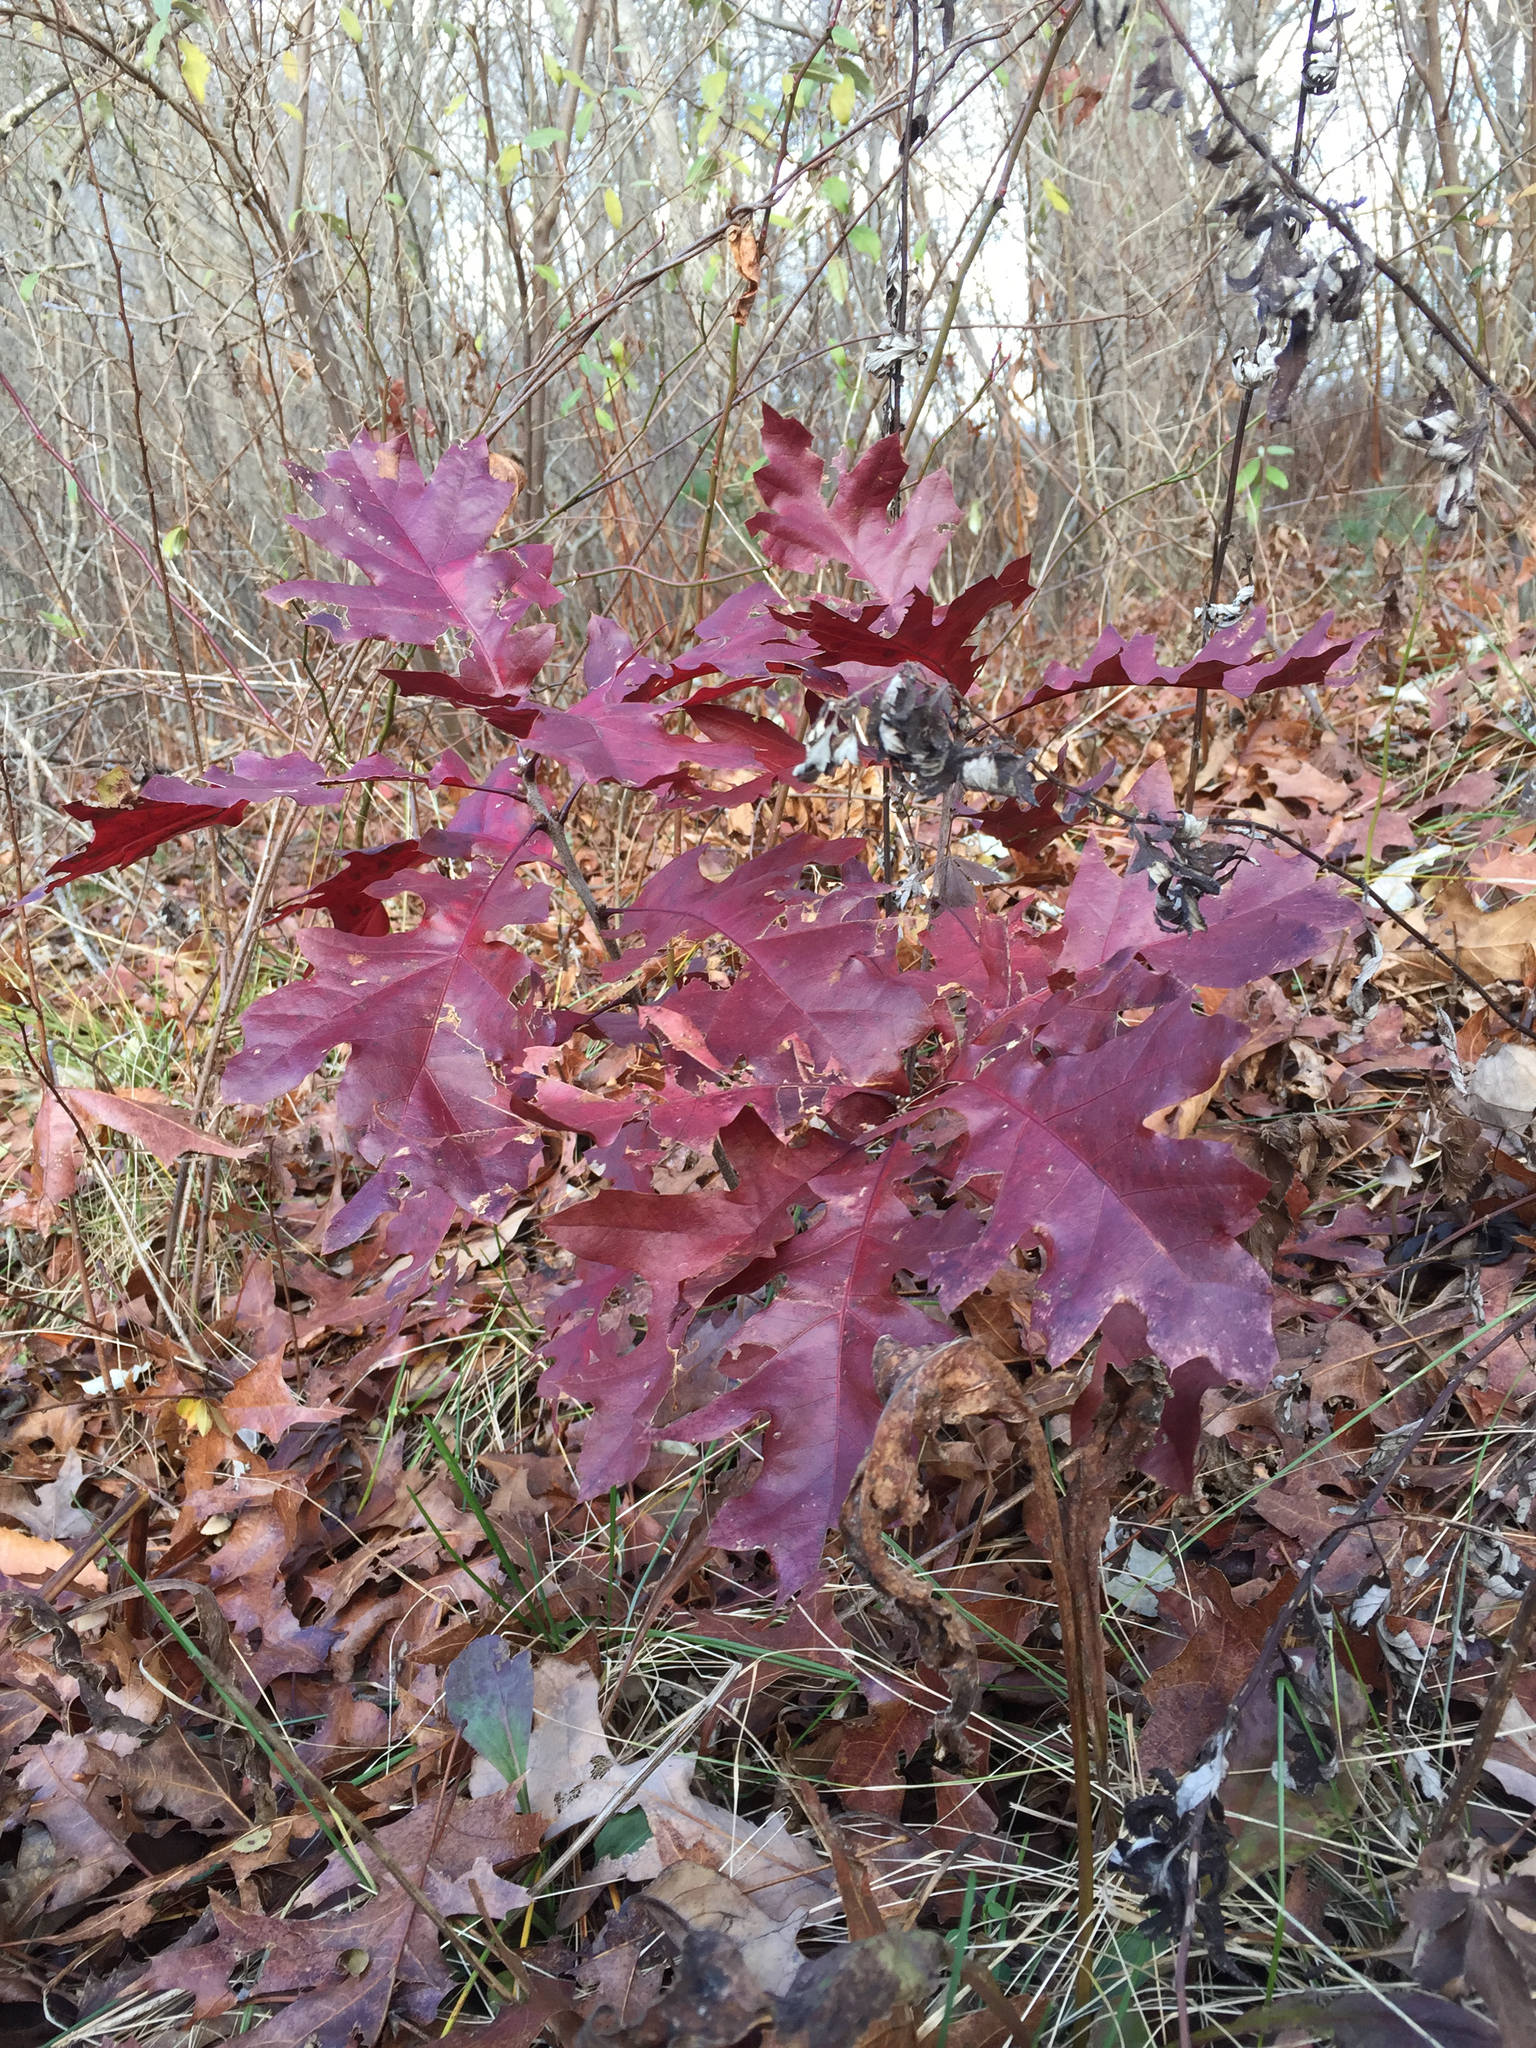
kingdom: Plantae
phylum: Tracheophyta
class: Magnoliopsida
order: Fagales
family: Fagaceae
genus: Quercus
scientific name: Quercus rubra
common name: Red oak
